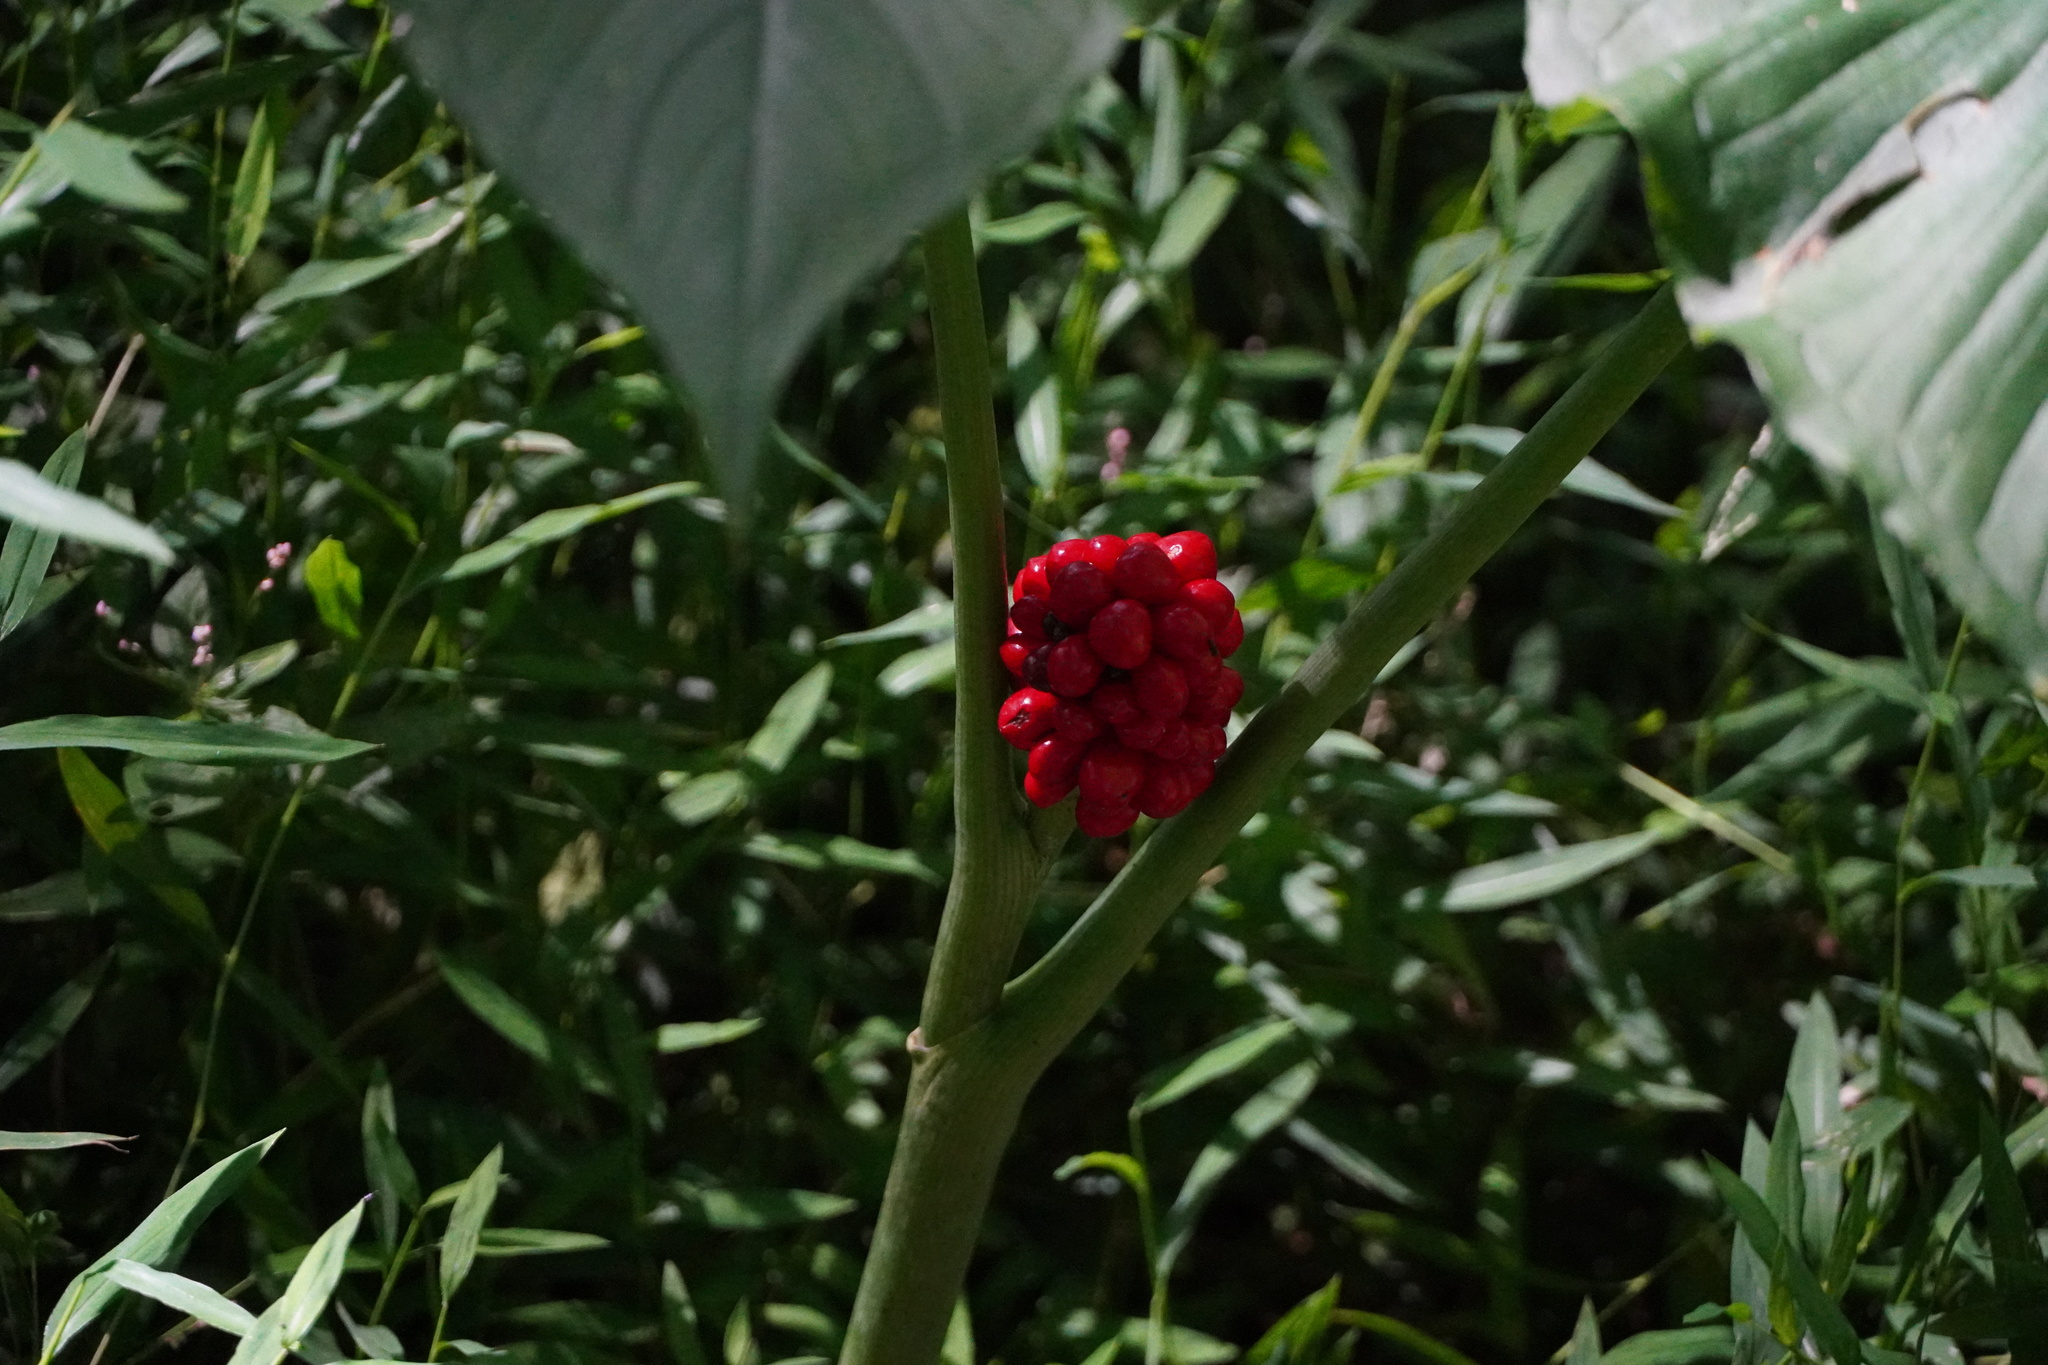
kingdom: Plantae
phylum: Tracheophyta
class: Liliopsida
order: Alismatales
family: Araceae
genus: Arisaema
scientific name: Arisaema triphyllum
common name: Jack-in-the-pulpit
